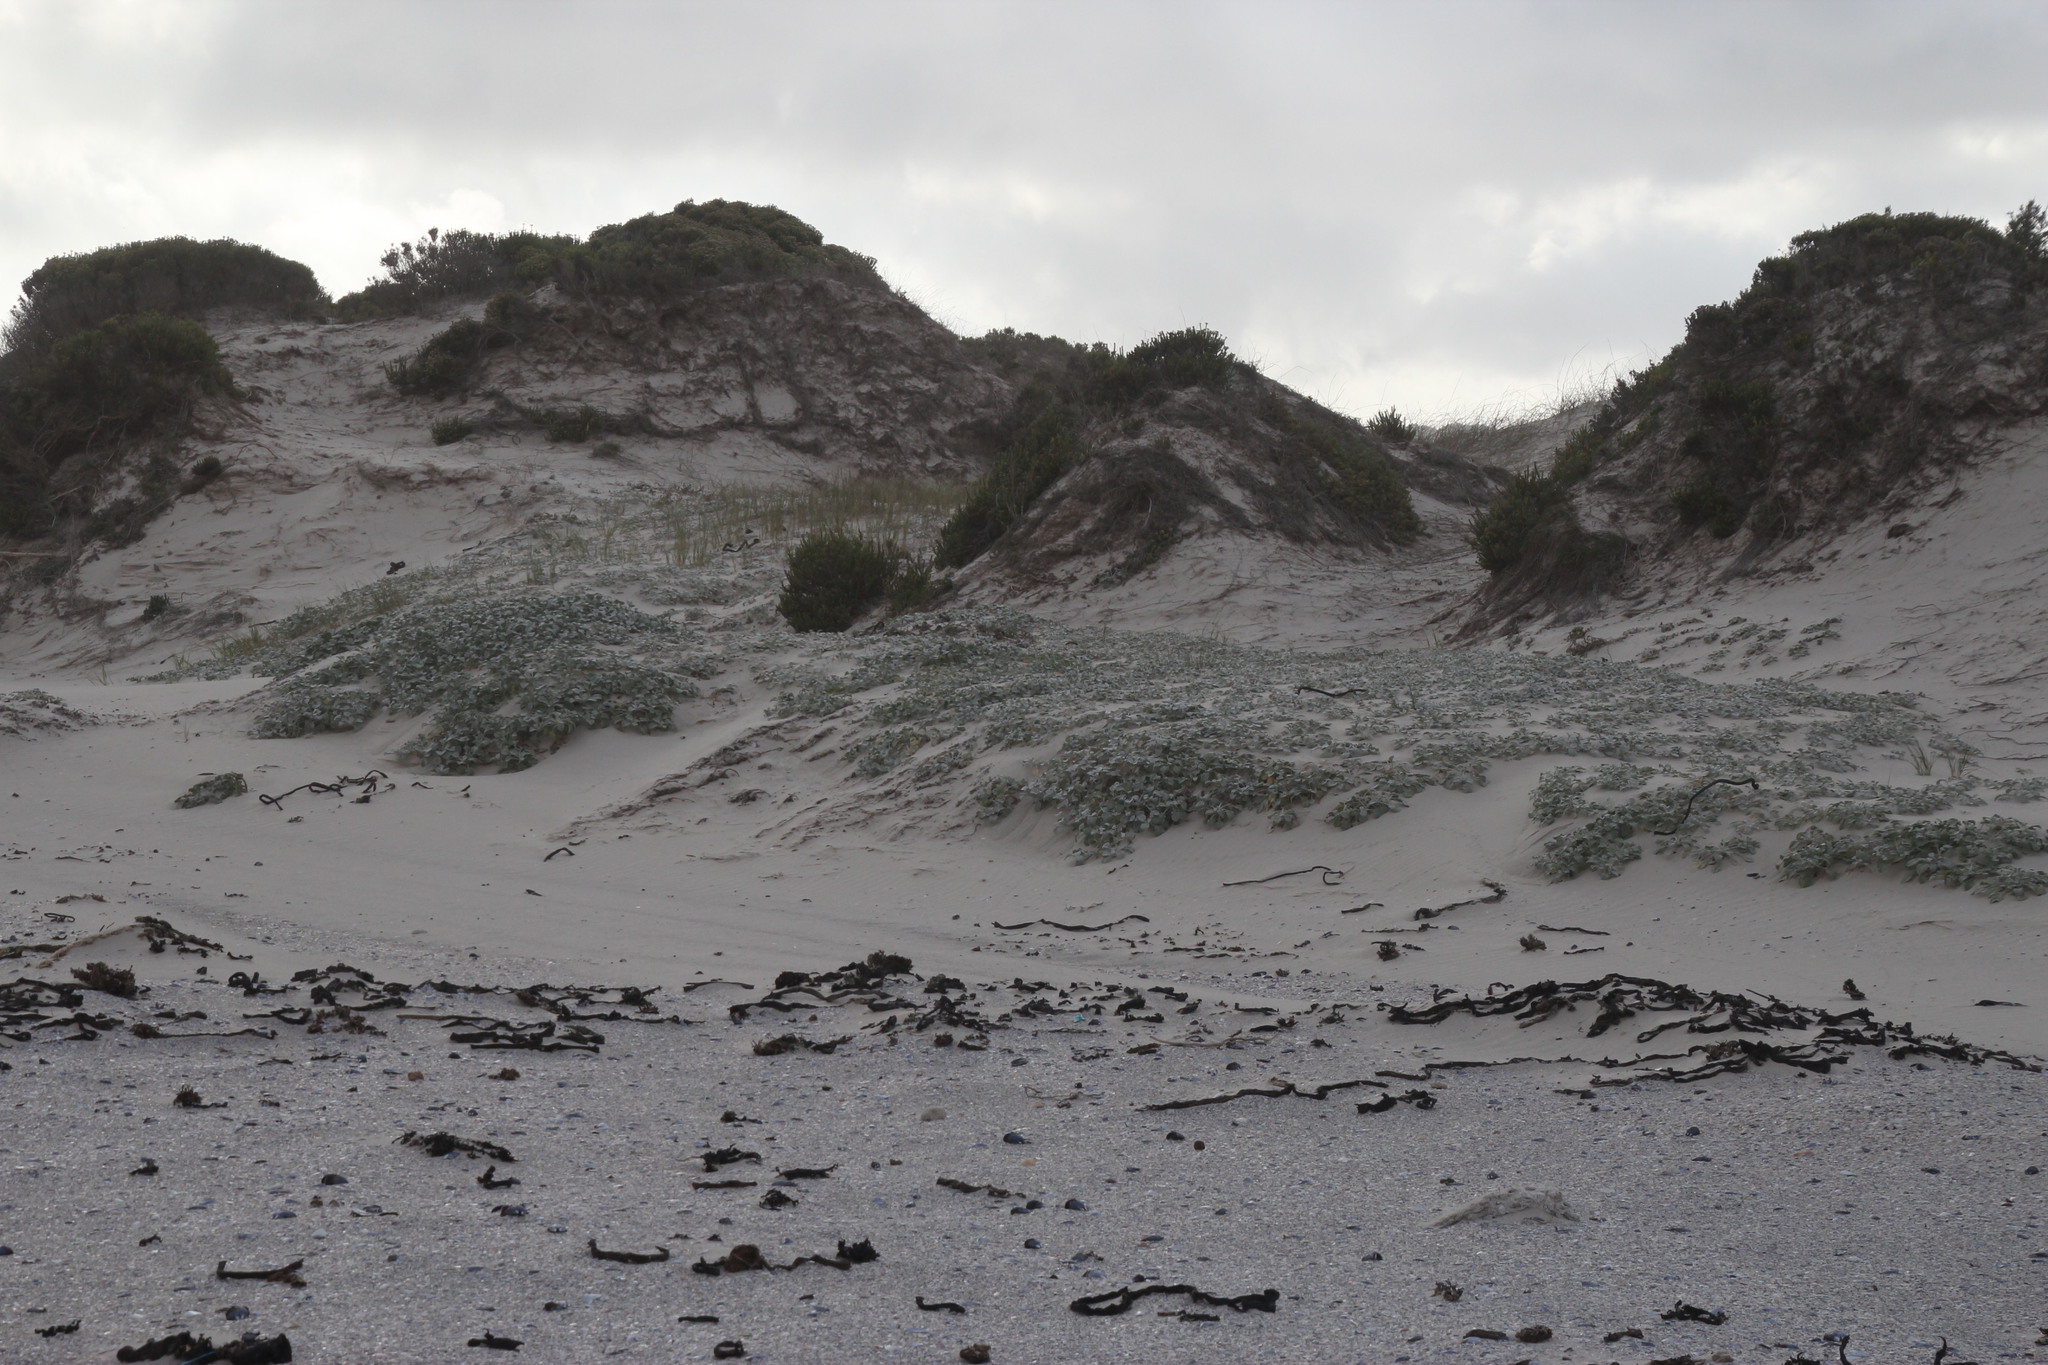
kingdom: Plantae
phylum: Tracheophyta
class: Magnoliopsida
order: Asterales
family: Asteraceae
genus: Arctotheca
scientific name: Arctotheca populifolia
